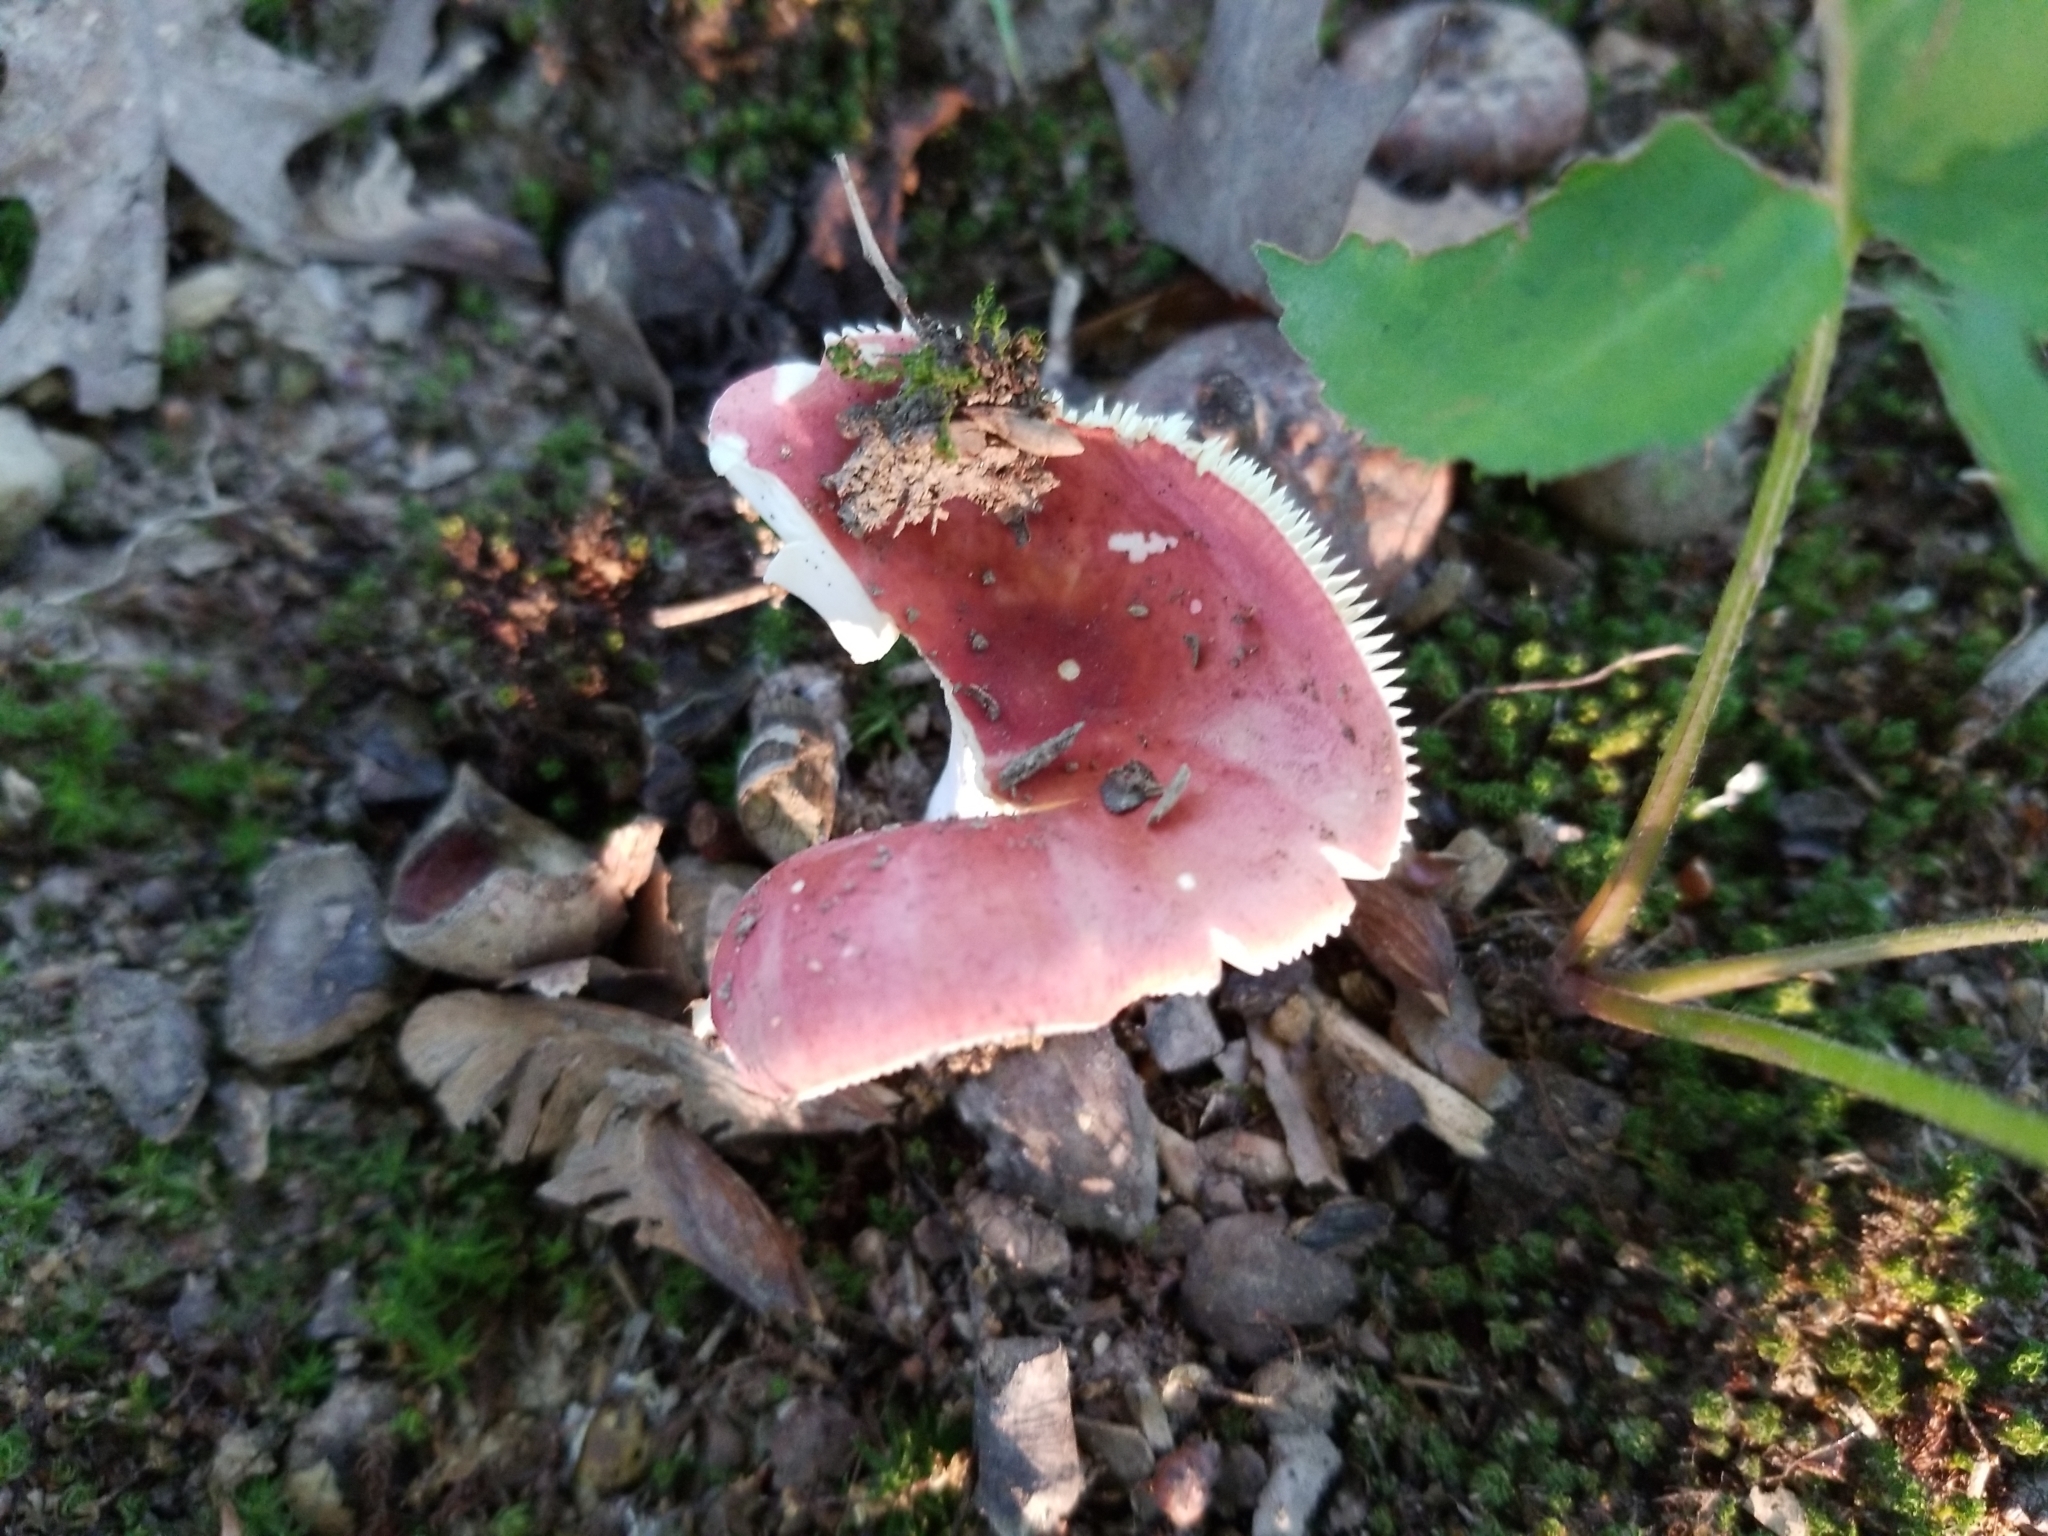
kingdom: Fungi
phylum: Basidiomycota
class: Agaricomycetes
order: Russulales
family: Russulaceae
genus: Russula
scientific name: Russula sanguinaria
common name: Bloody brittlegill
